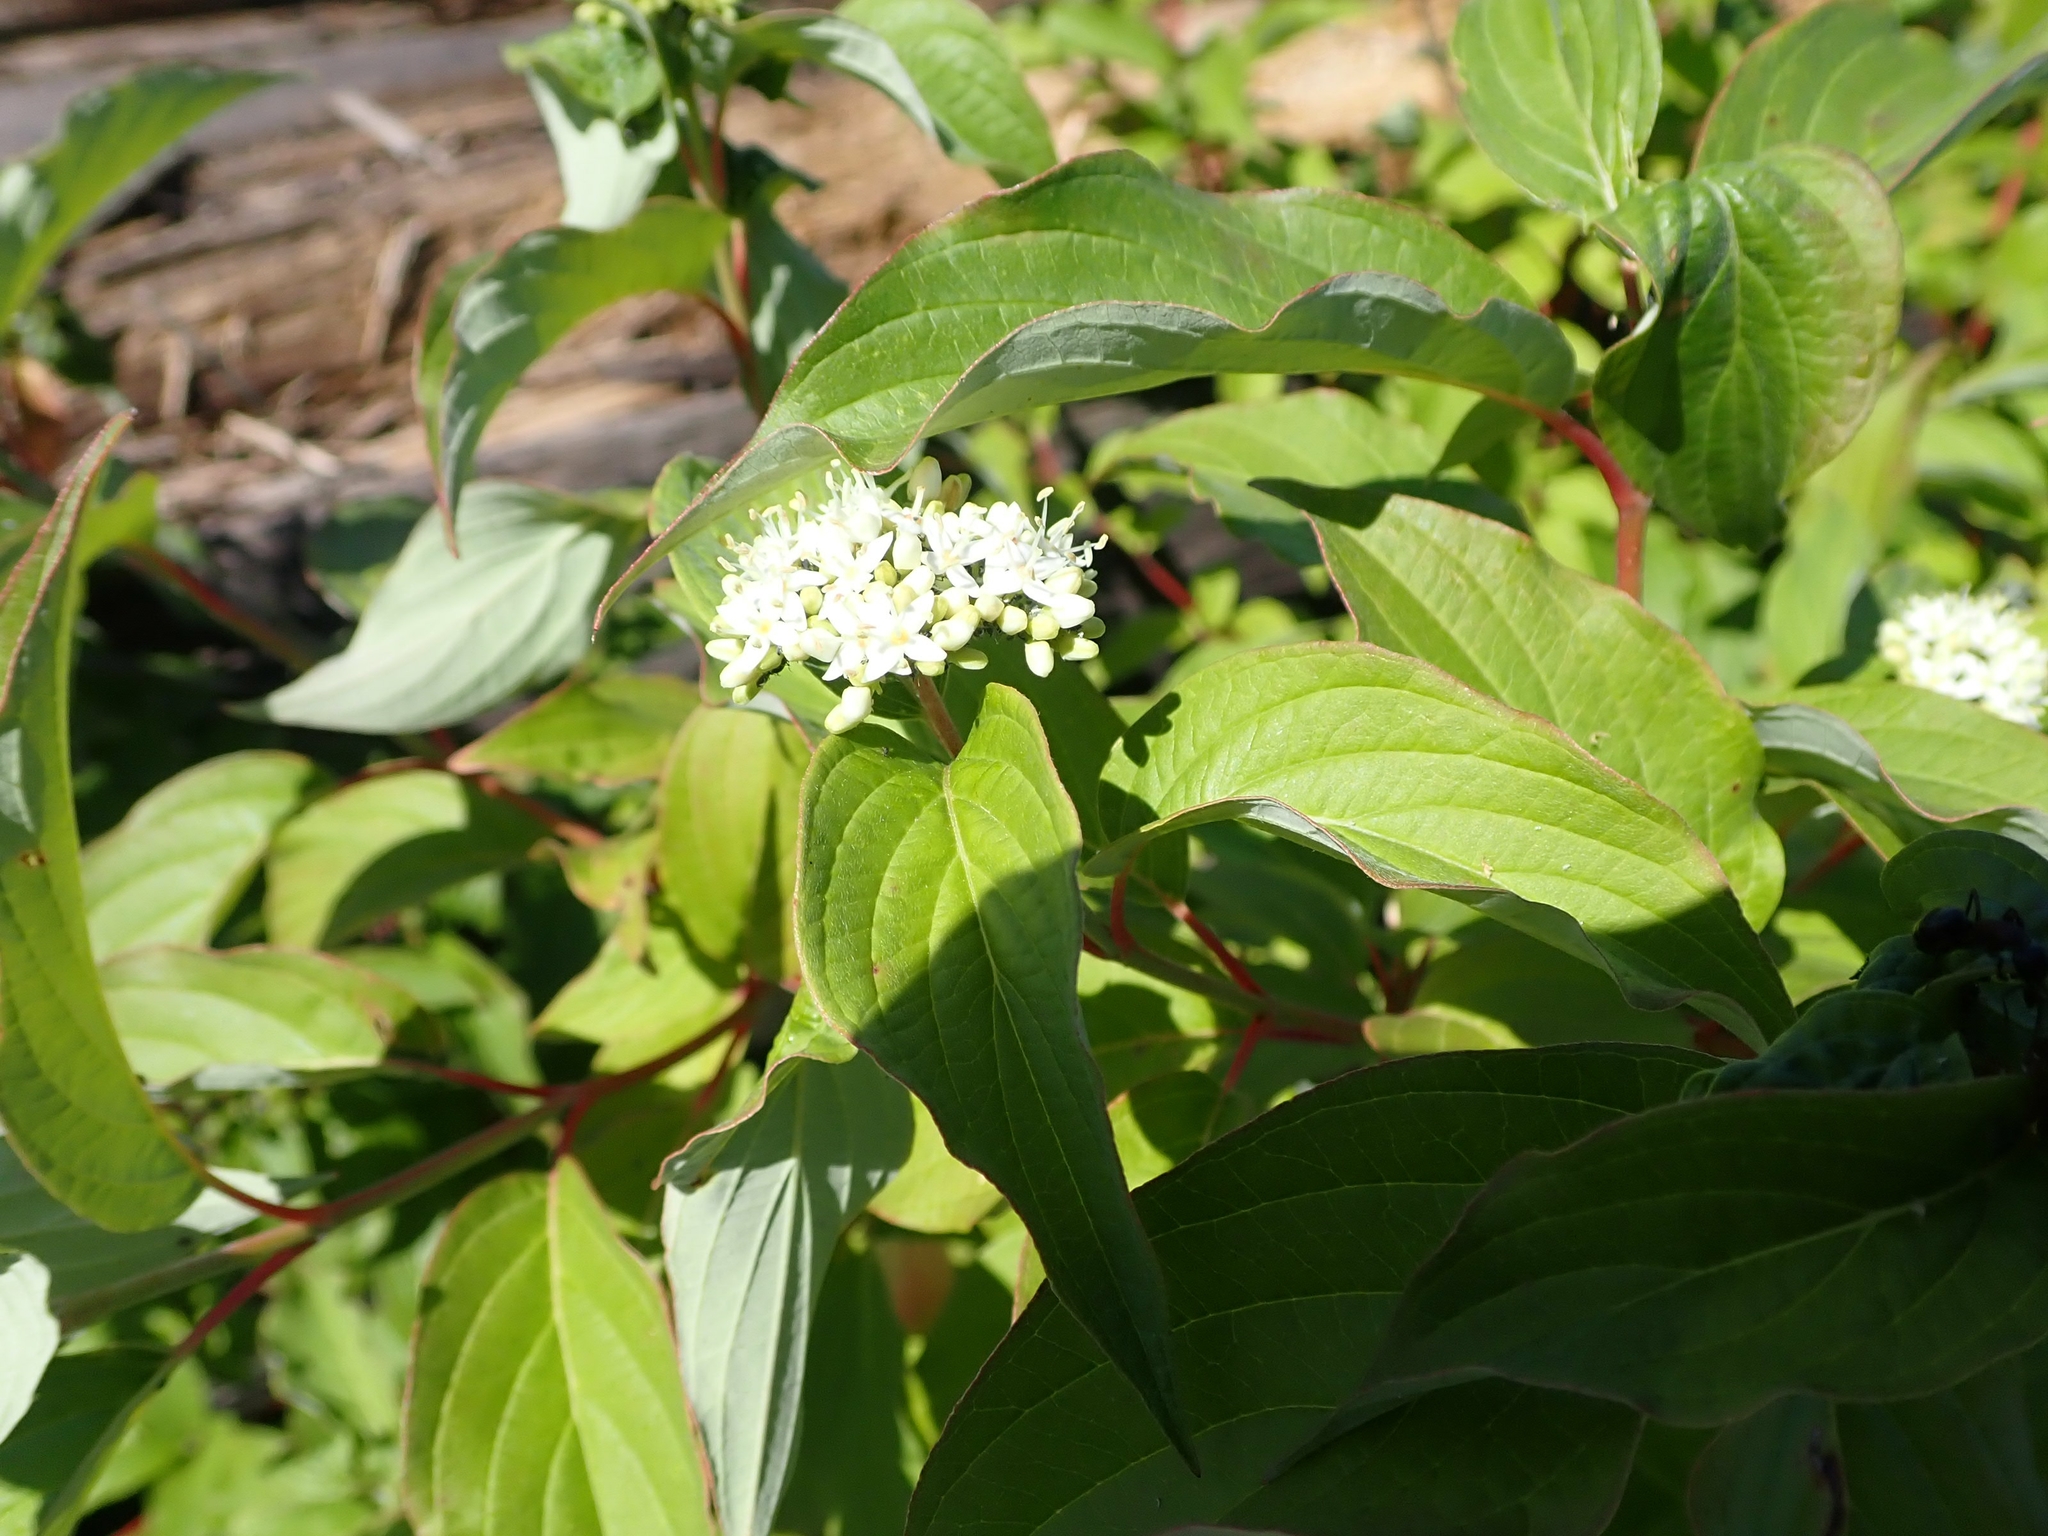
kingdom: Plantae
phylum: Tracheophyta
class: Magnoliopsida
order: Cornales
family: Cornaceae
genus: Cornus
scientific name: Cornus sericea
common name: Red-osier dogwood
